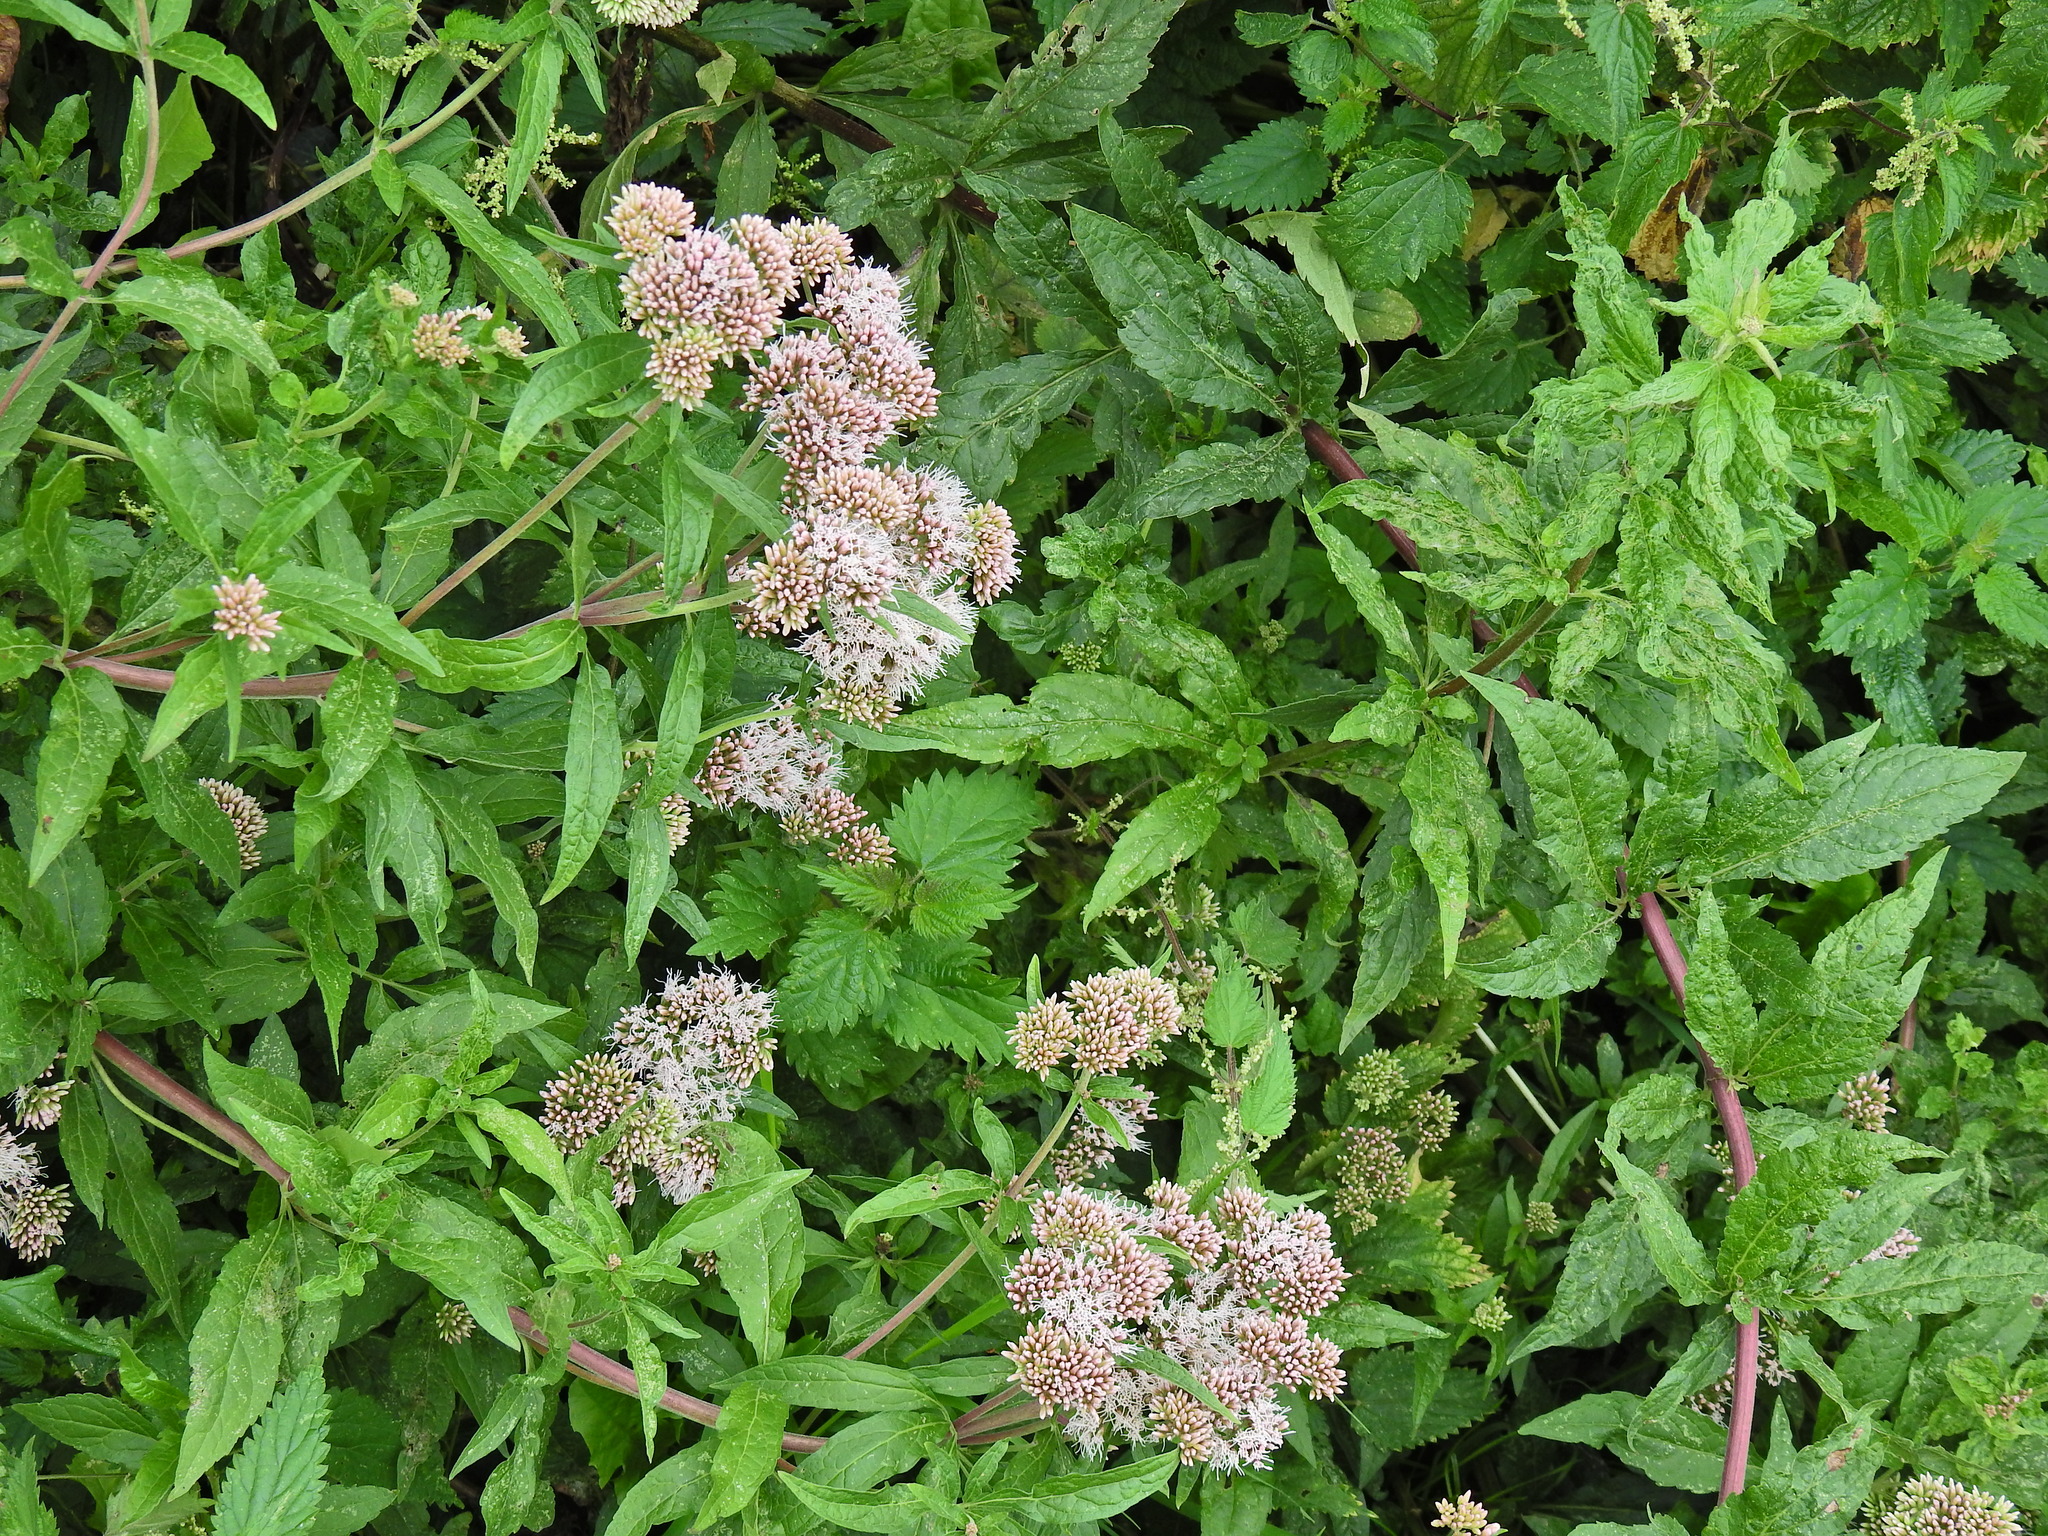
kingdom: Plantae
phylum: Tracheophyta
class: Magnoliopsida
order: Asterales
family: Asteraceae
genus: Eupatorium
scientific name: Eupatorium cannabinum
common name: Hemp-agrimony
